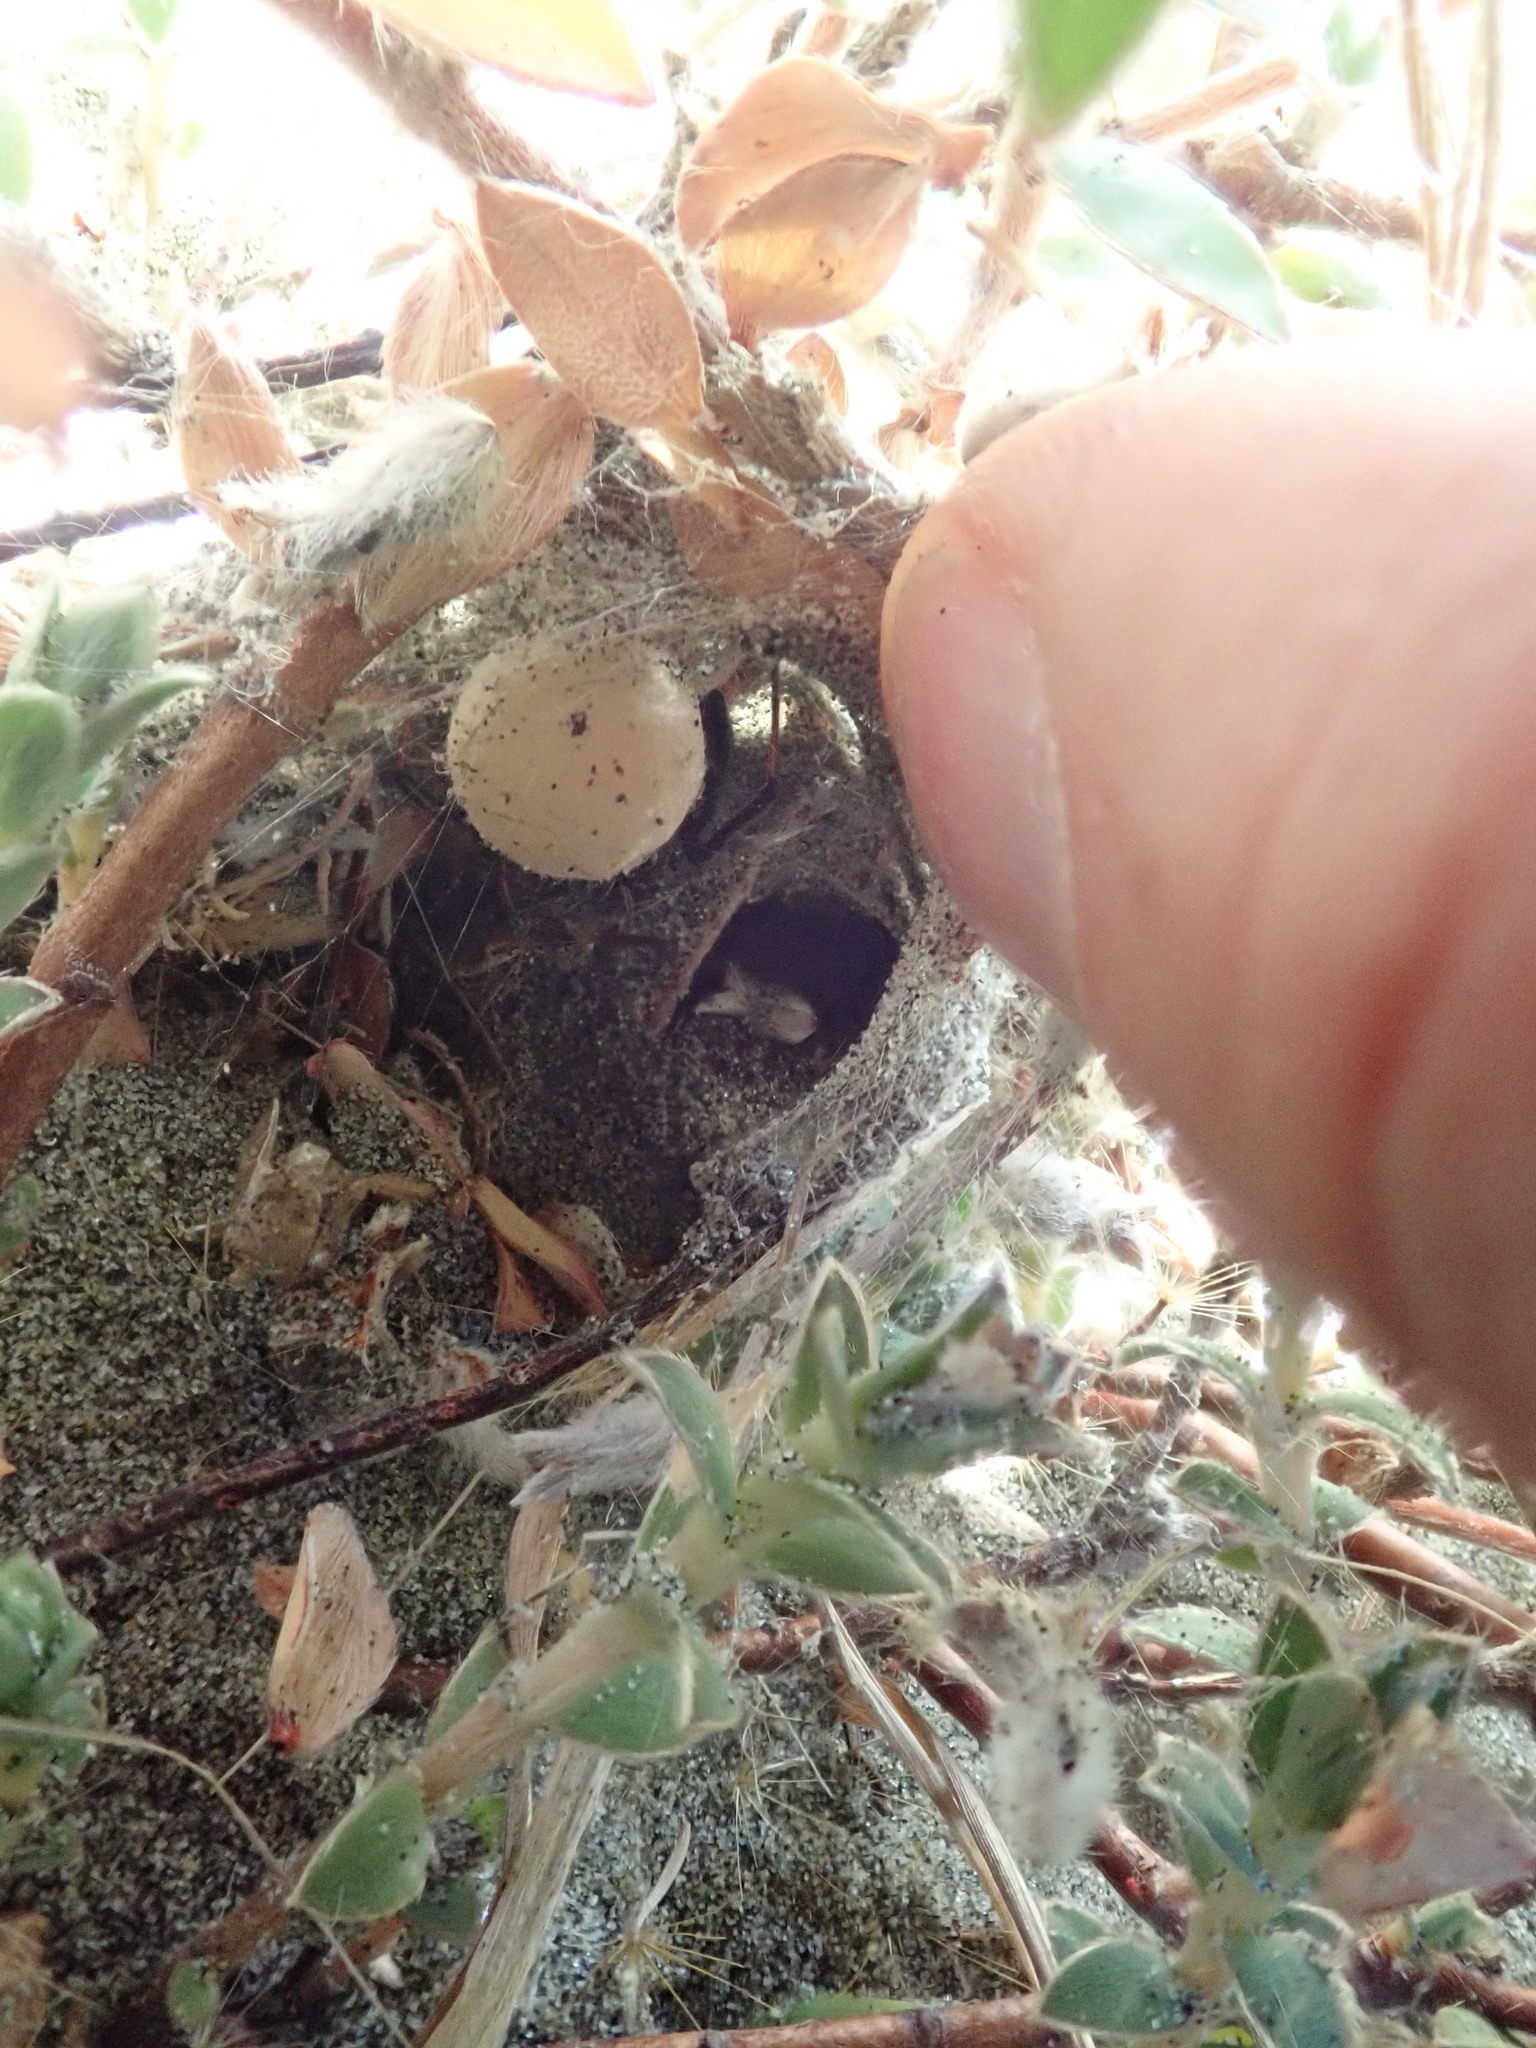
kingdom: Animalia
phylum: Arthropoda
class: Arachnida
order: Araneae
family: Theridiidae
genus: Latrodectus
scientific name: Latrodectus katipo
